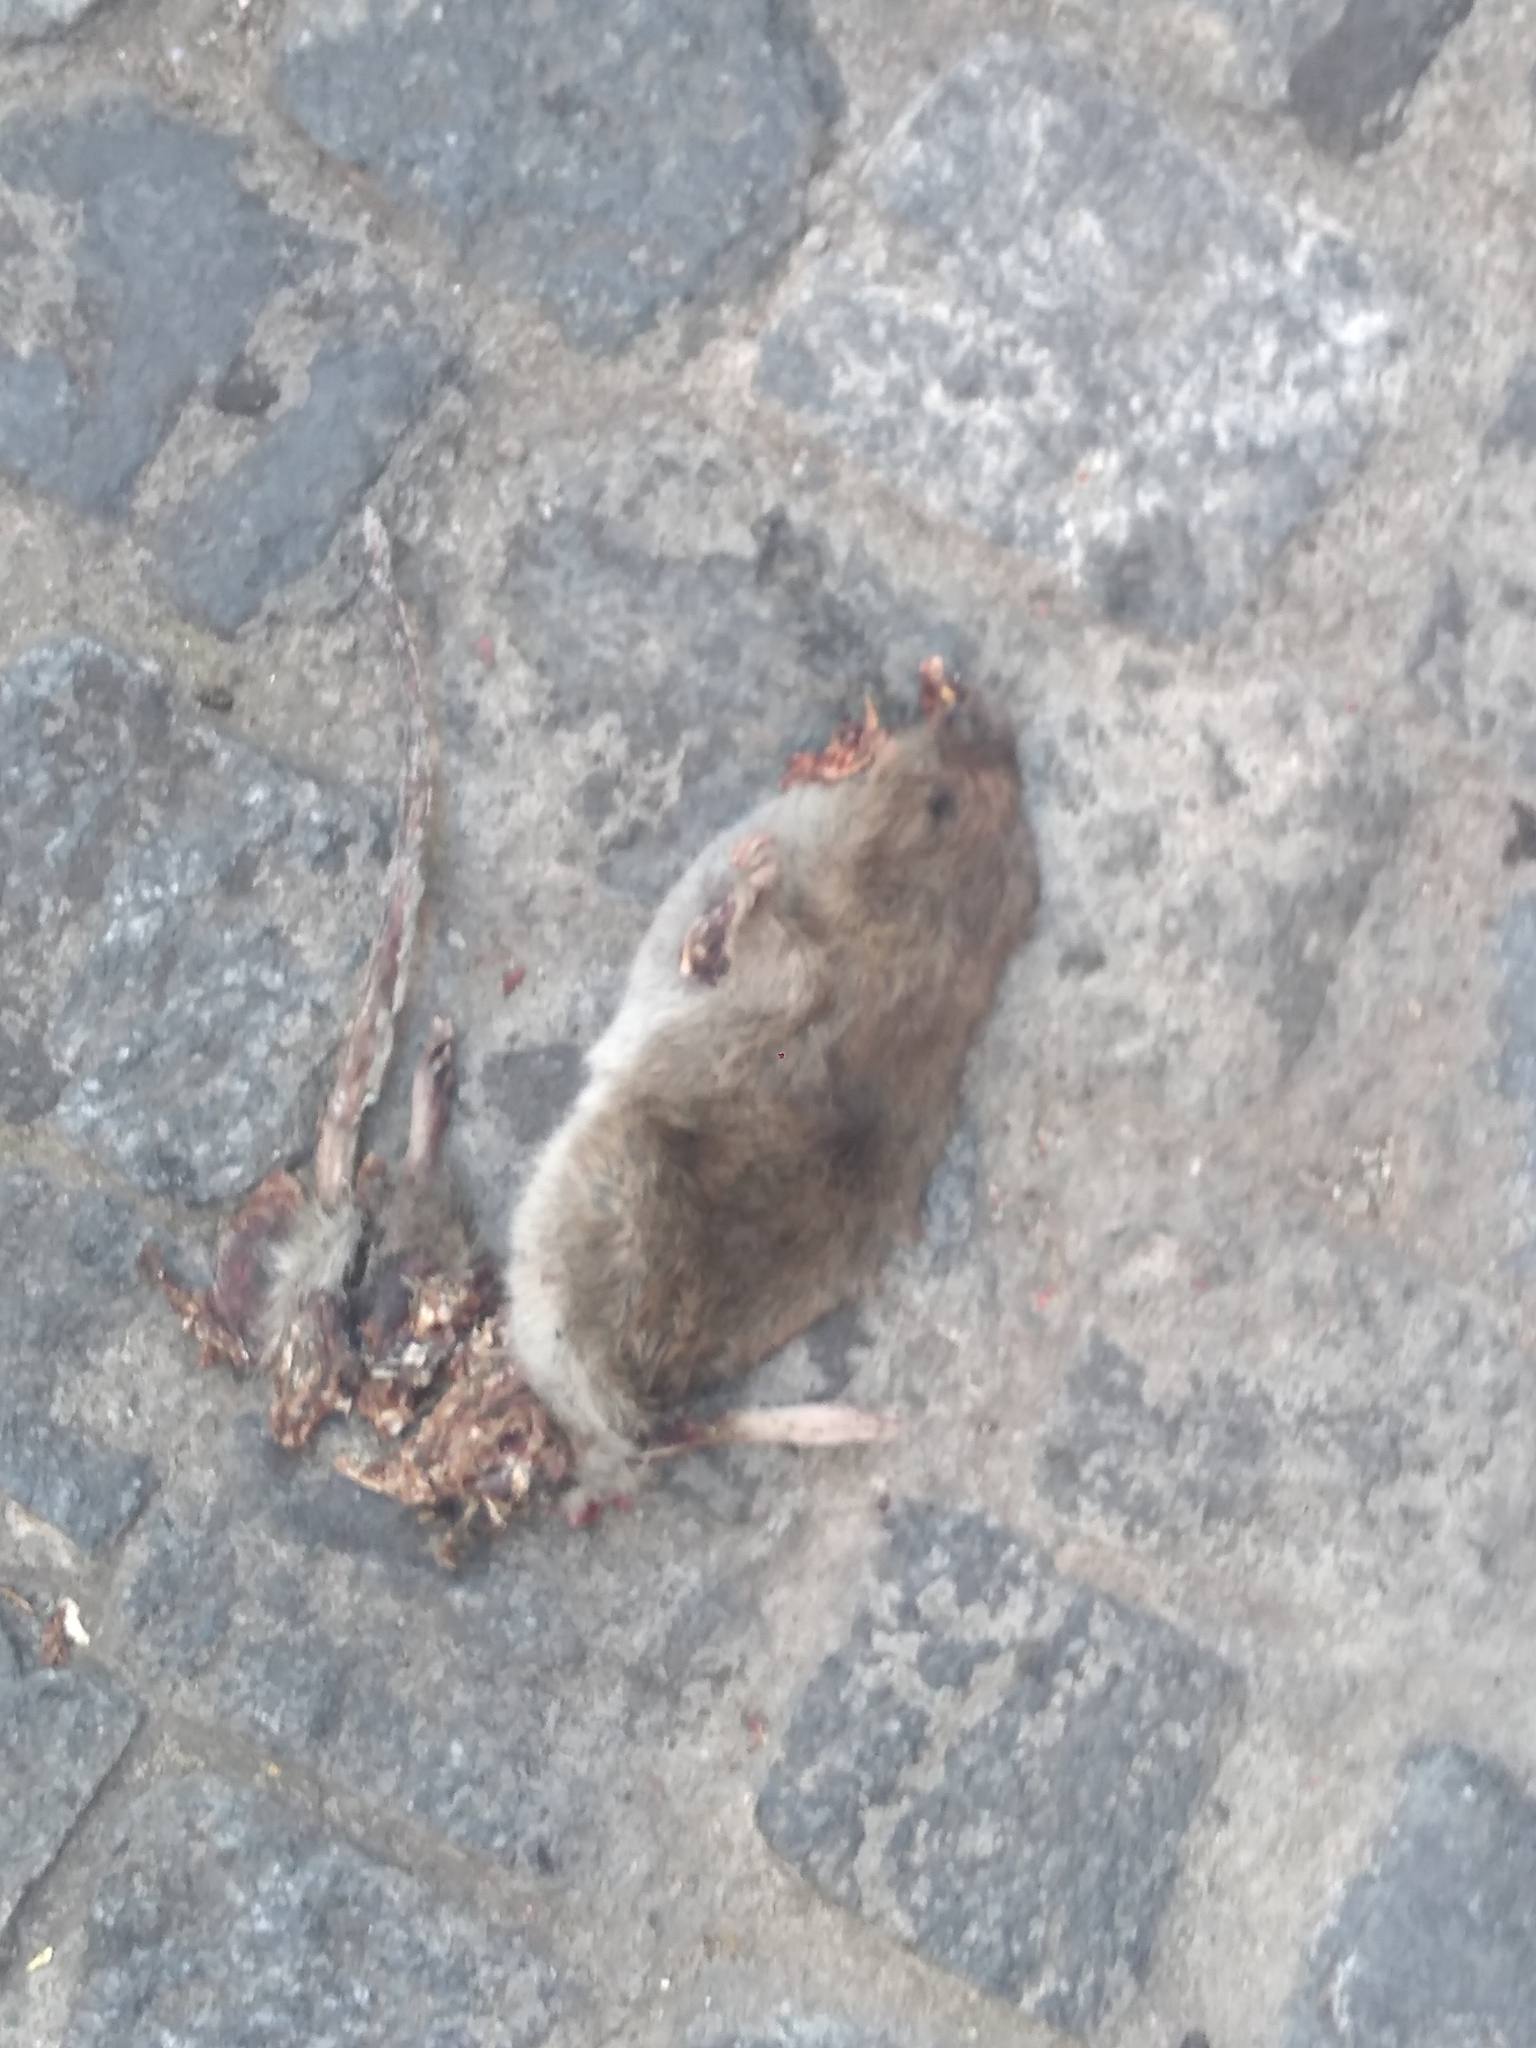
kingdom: Animalia
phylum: Chordata
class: Mammalia
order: Rodentia
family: Muridae
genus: Rattus
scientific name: Rattus norvegicus
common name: Brown rat
